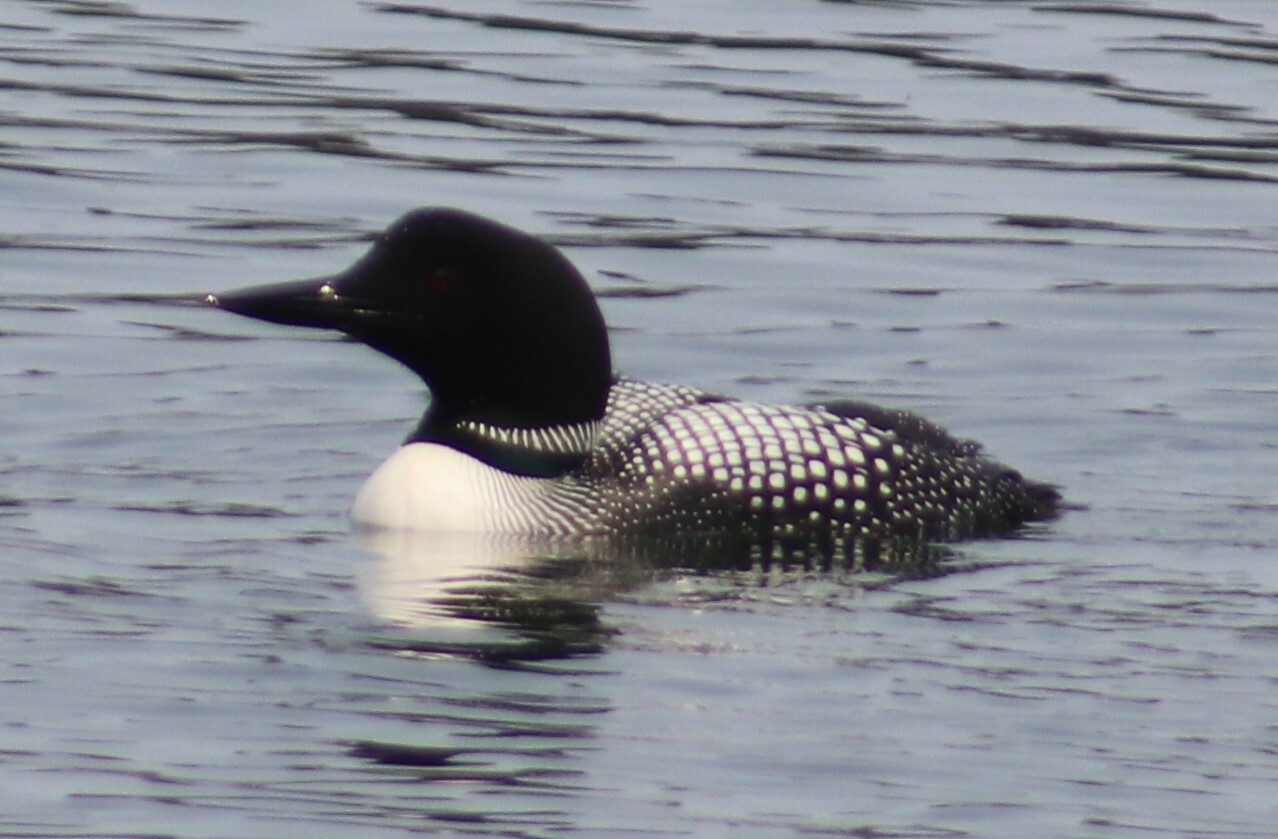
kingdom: Animalia
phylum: Chordata
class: Aves
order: Gaviiformes
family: Gaviidae
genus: Gavia
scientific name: Gavia immer
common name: Common loon
